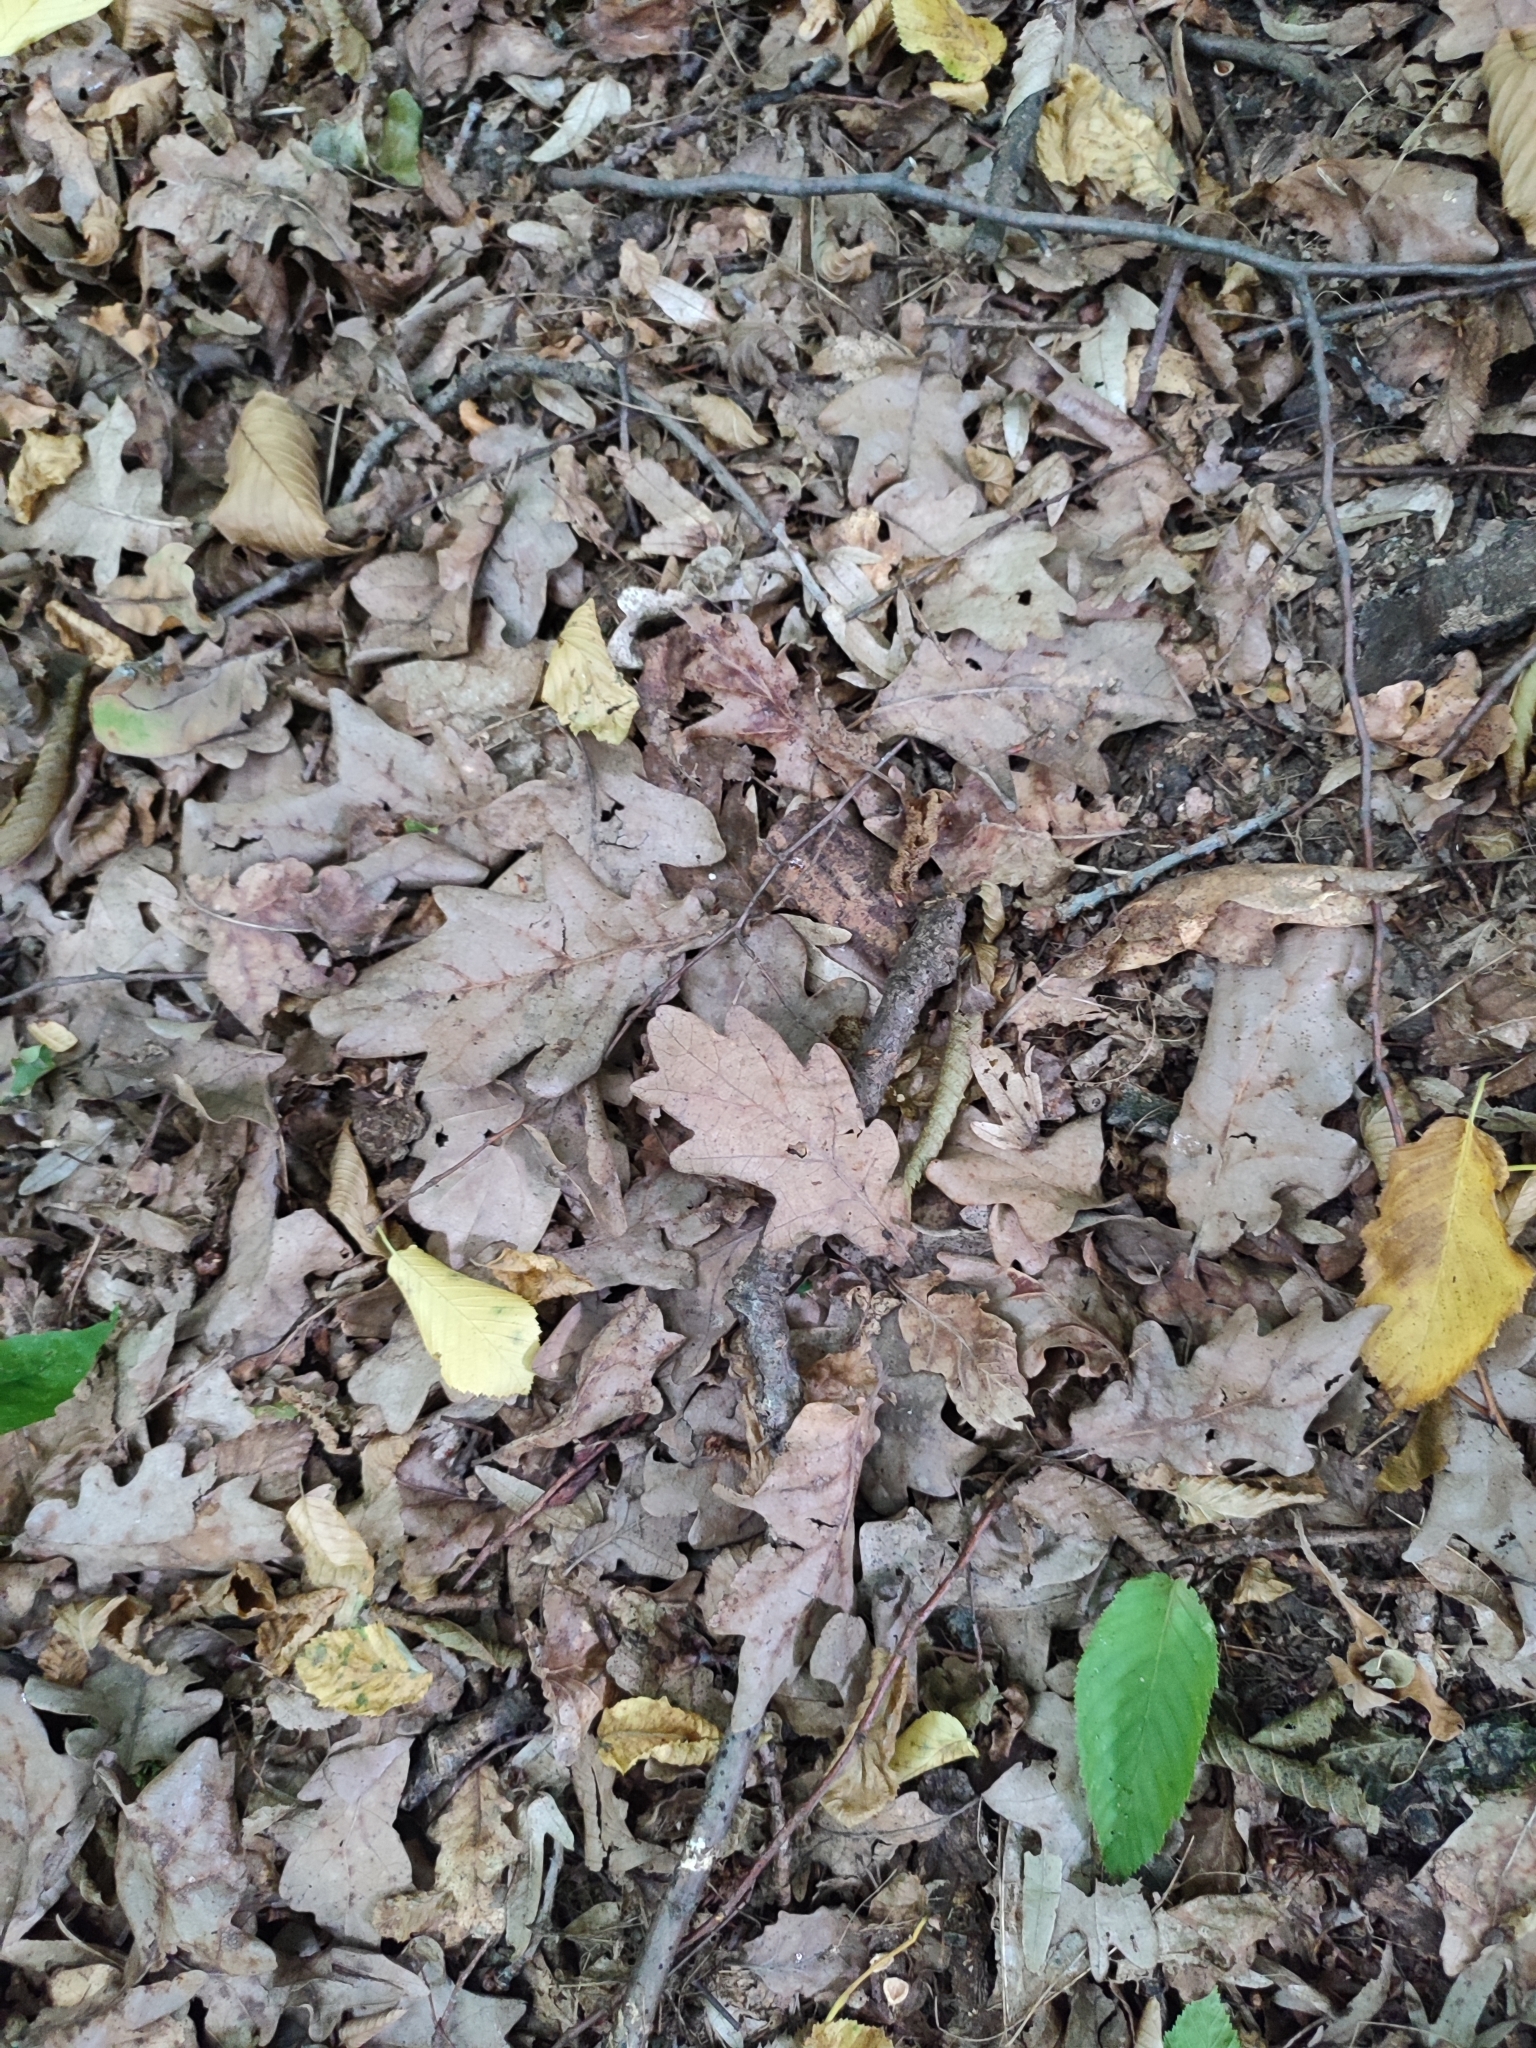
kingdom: Plantae
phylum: Tracheophyta
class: Magnoliopsida
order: Fagales
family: Fagaceae
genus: Quercus
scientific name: Quercus robur
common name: Pedunculate oak
